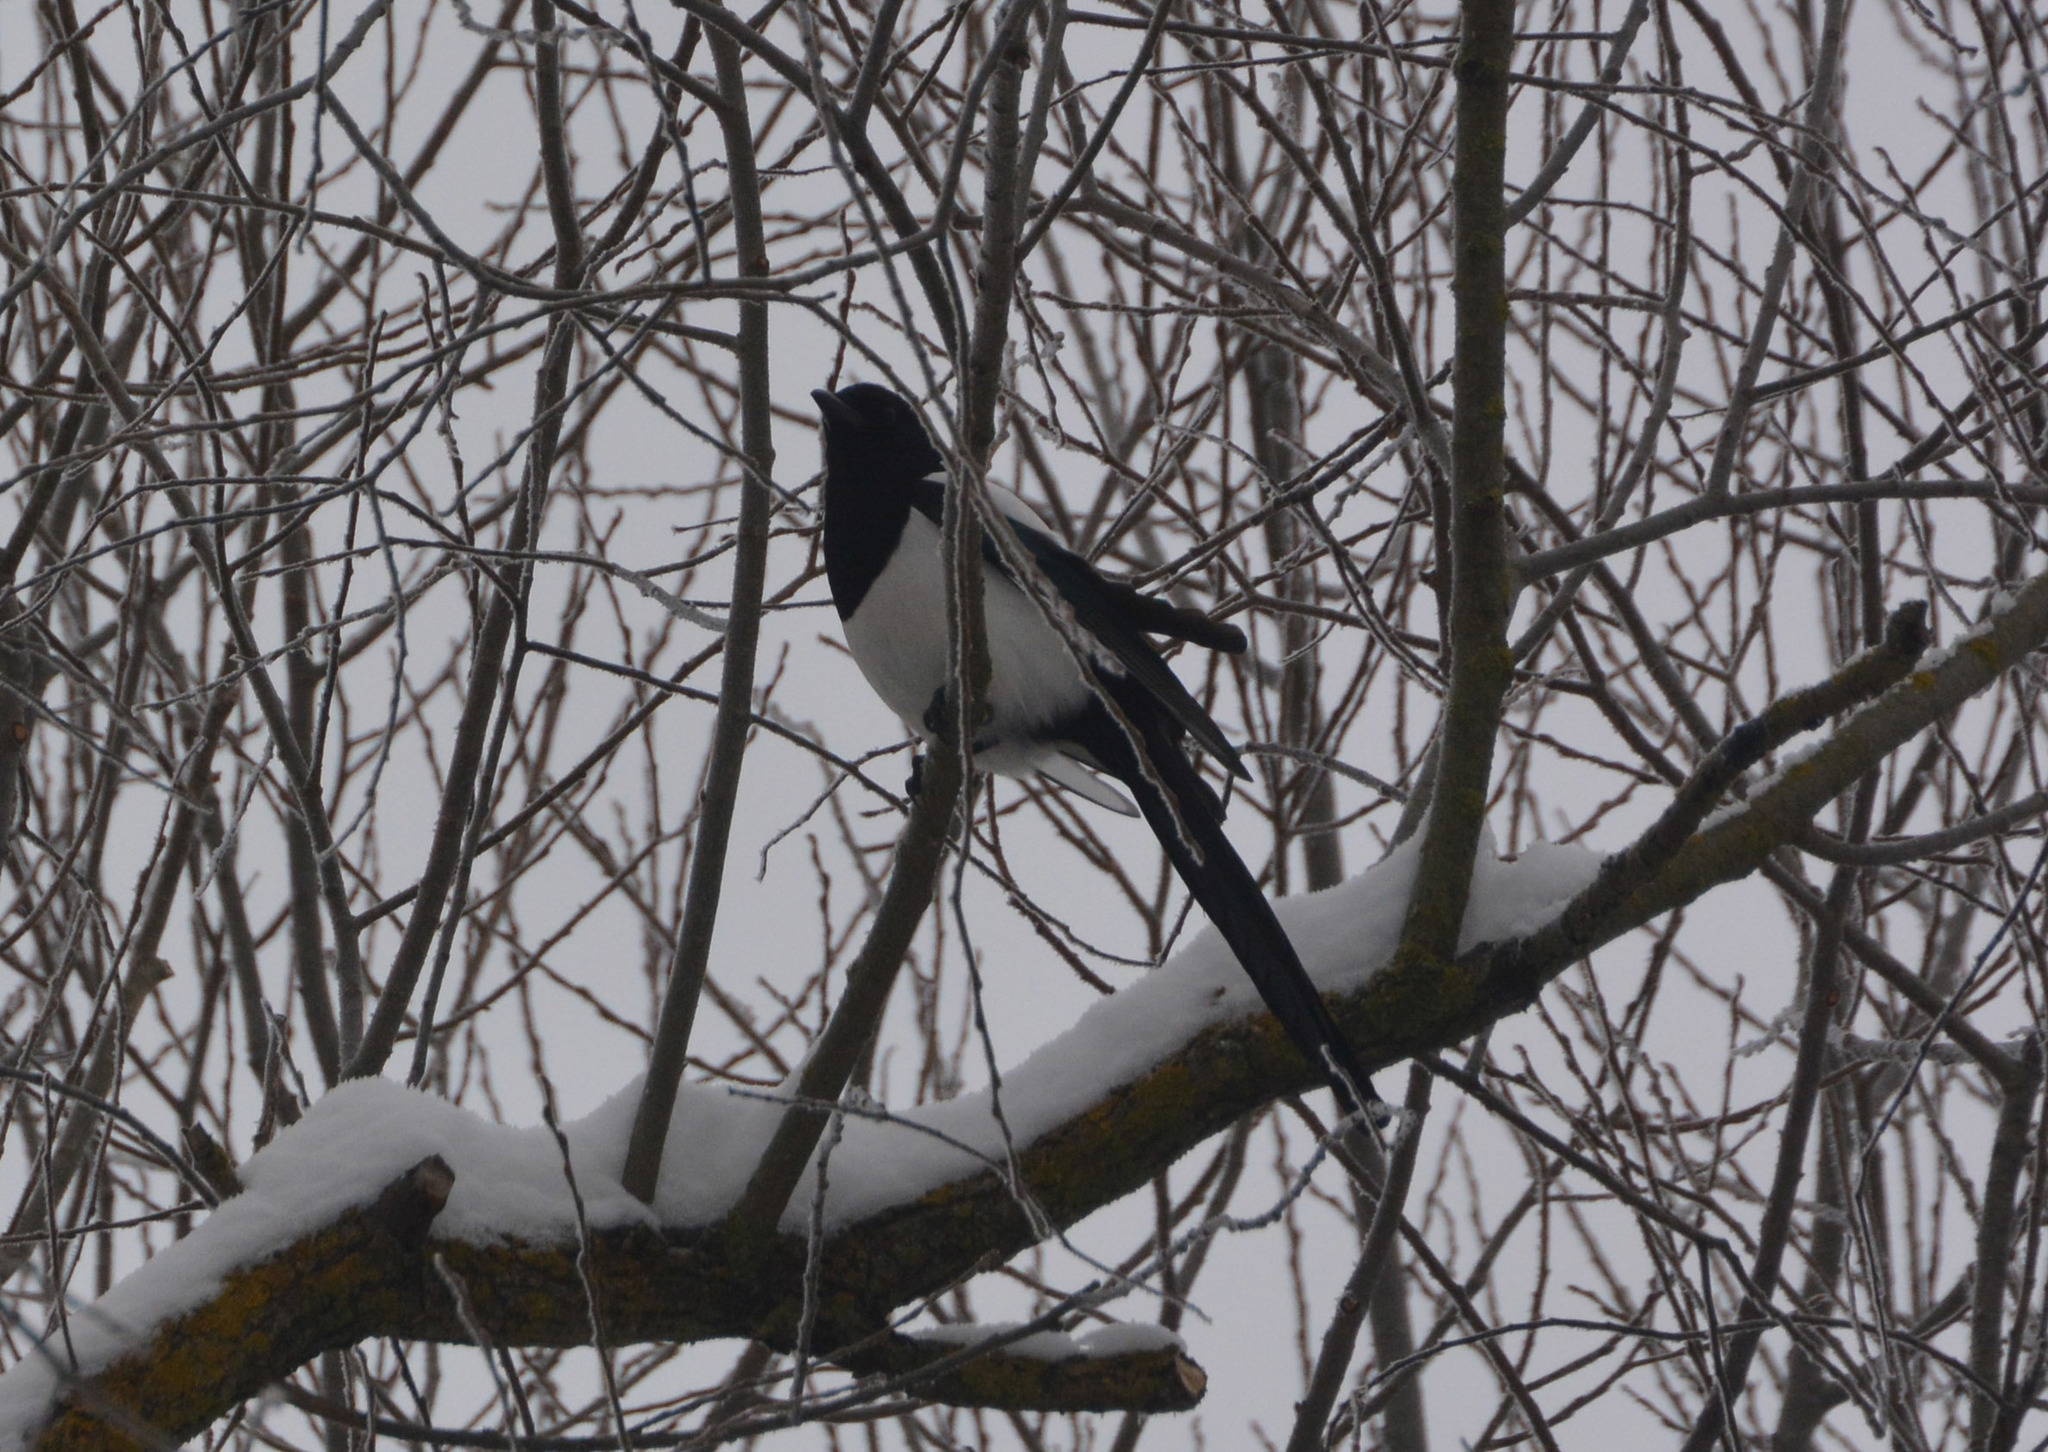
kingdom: Animalia
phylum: Chordata
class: Aves
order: Passeriformes
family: Corvidae
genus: Pica
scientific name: Pica pica
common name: Eurasian magpie
